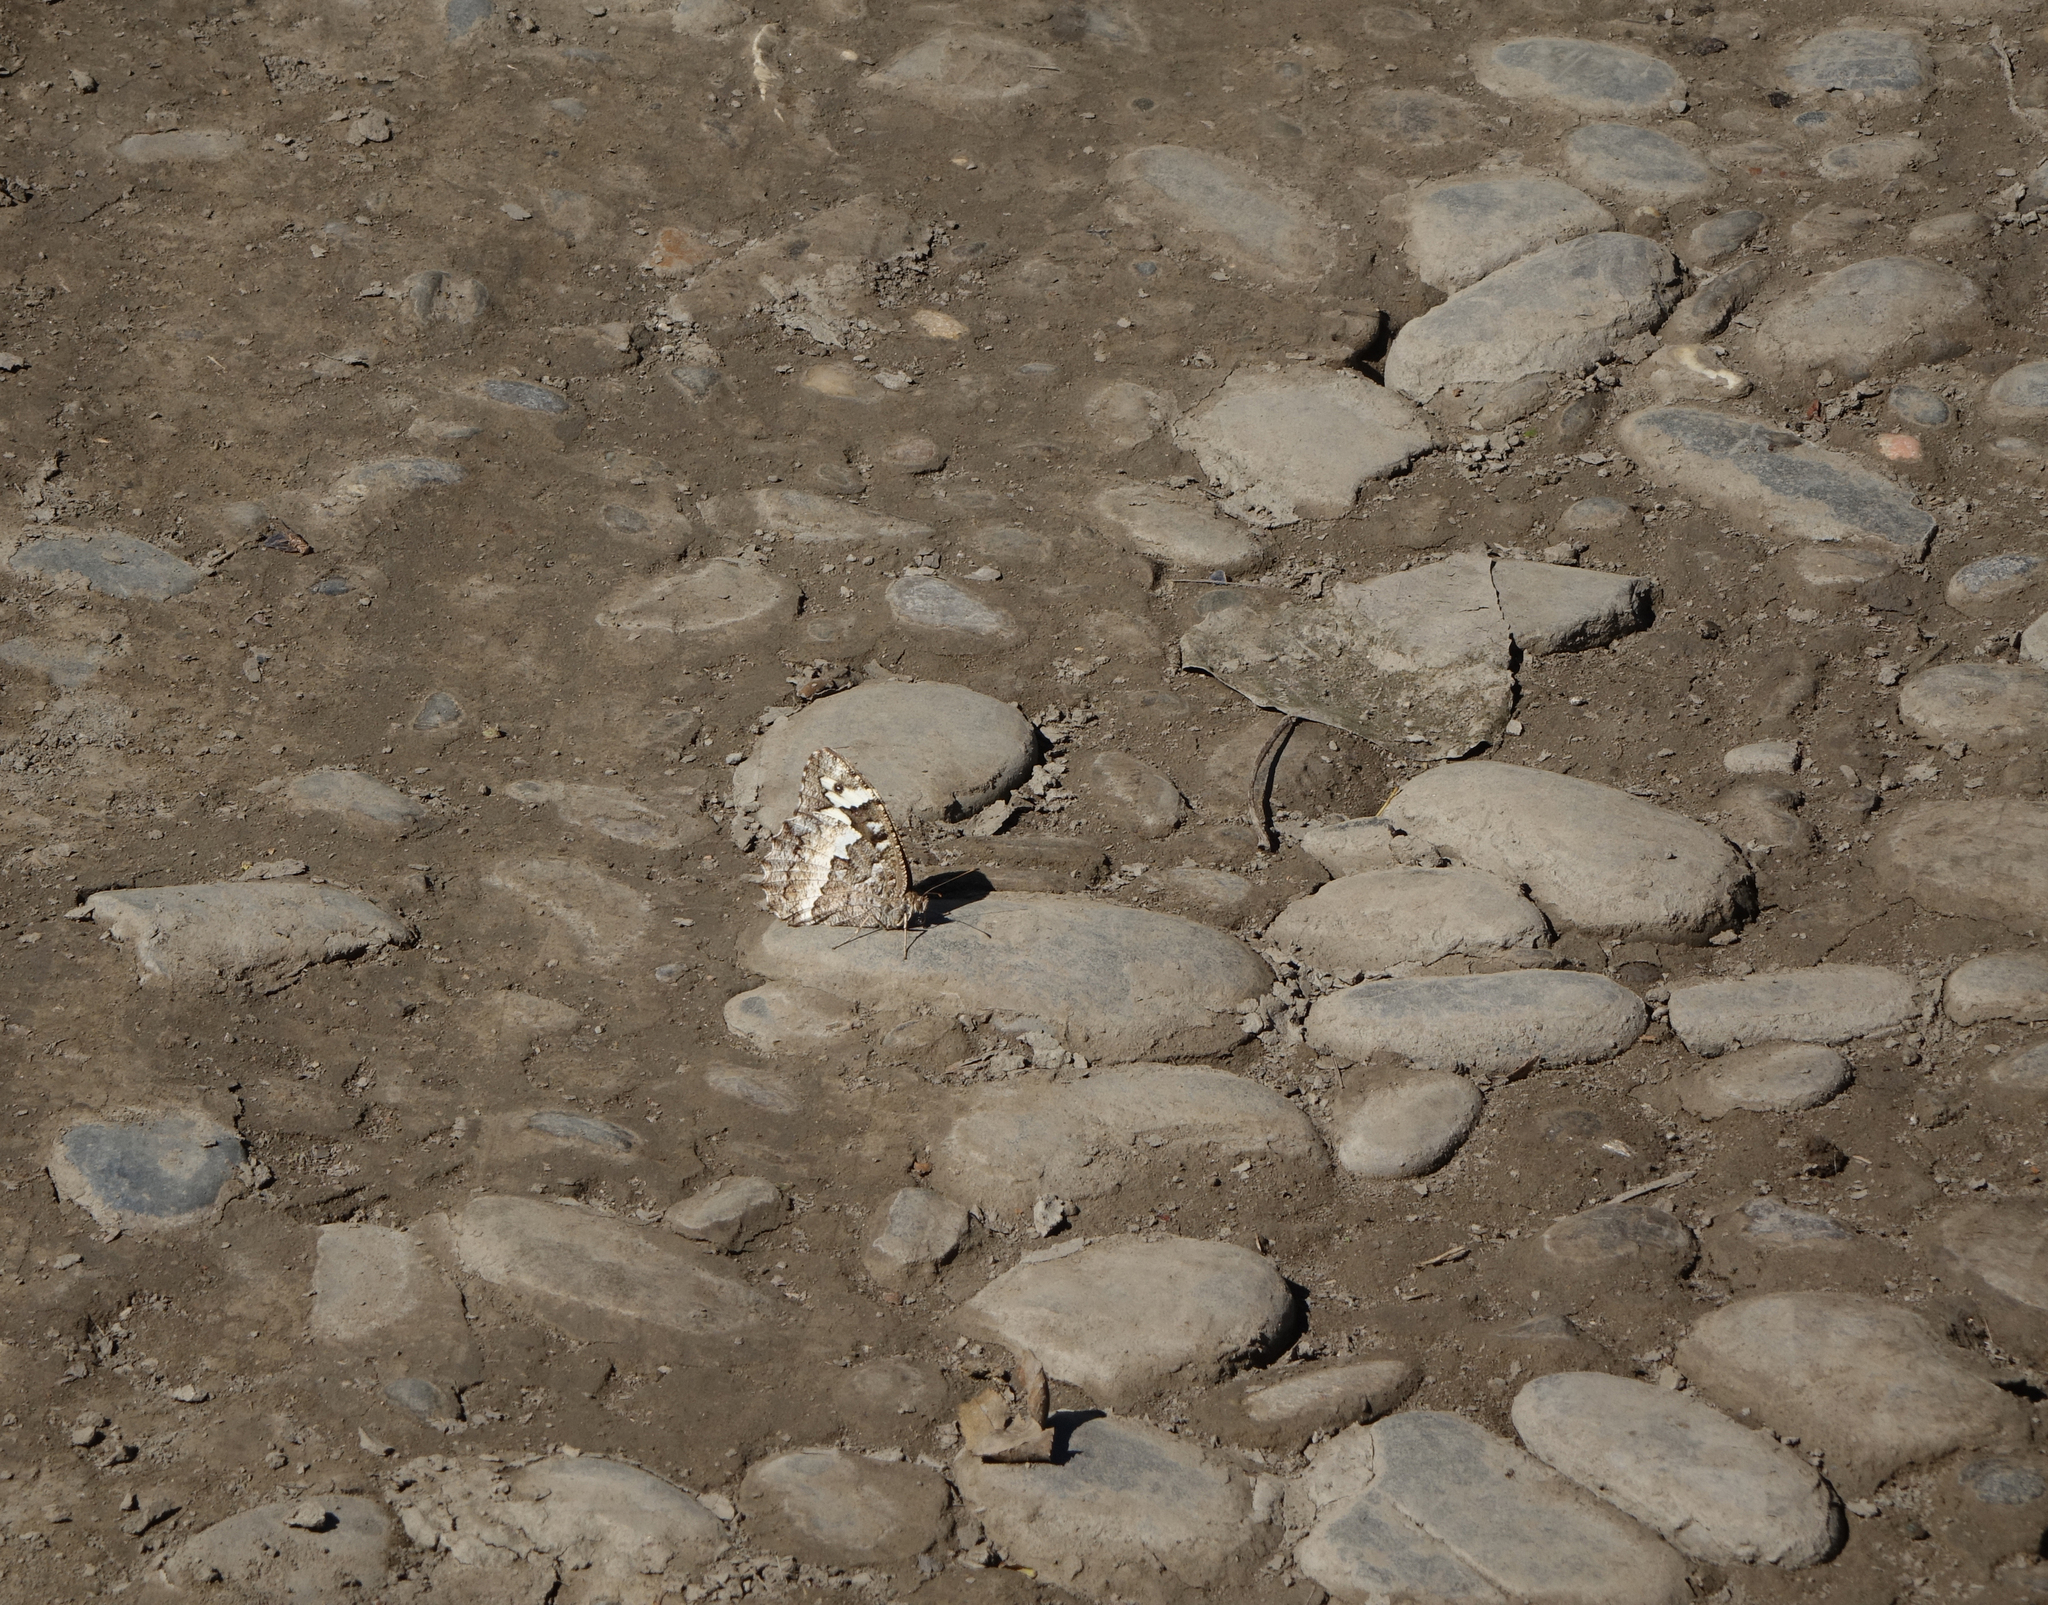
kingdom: Animalia
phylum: Arthropoda
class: Insecta
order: Lepidoptera
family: Lycaenidae
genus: Loweia
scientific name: Loweia tityrus
